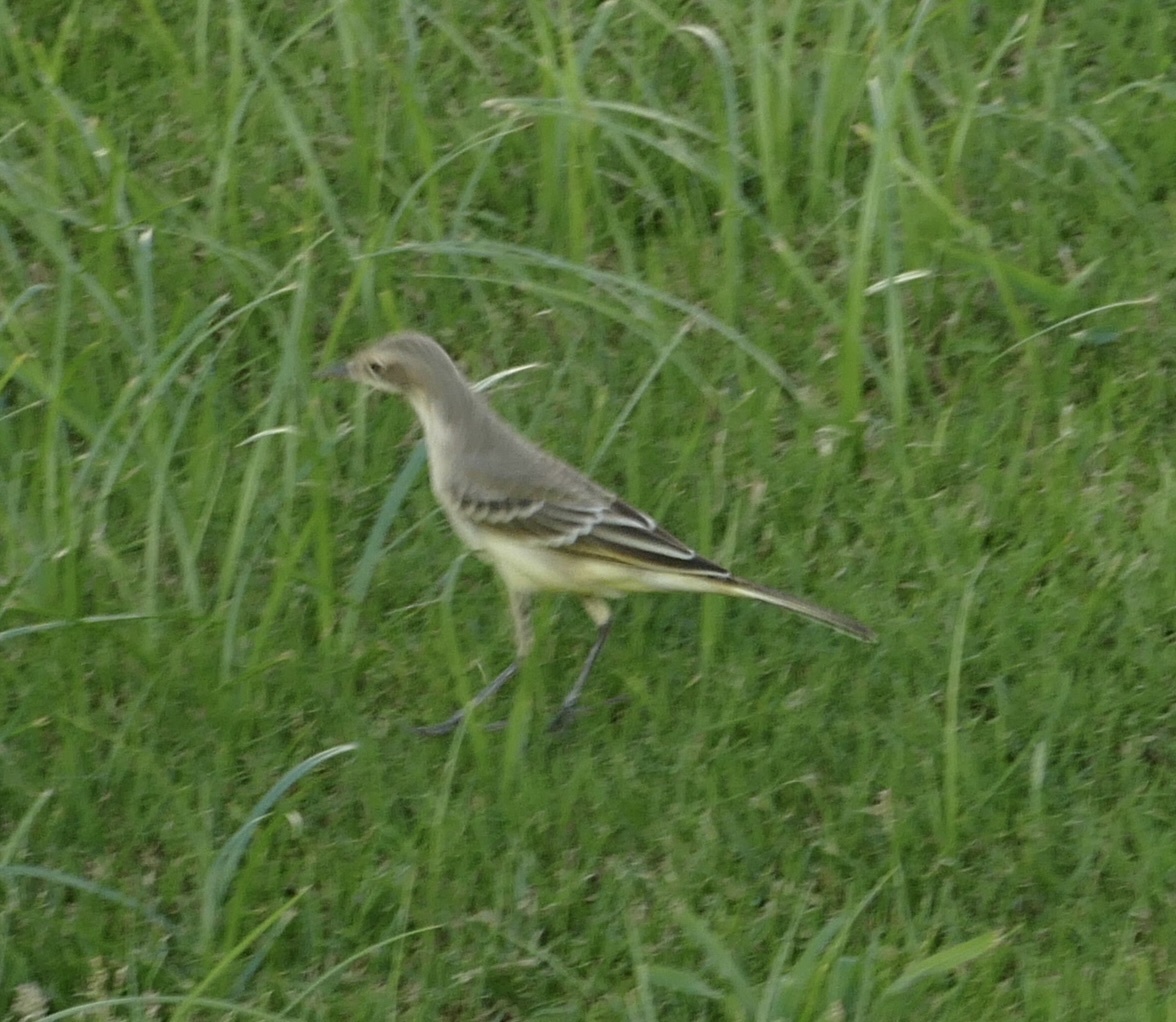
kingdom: Animalia
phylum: Chordata
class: Aves
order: Passeriformes
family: Motacillidae
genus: Motacilla
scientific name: Motacilla flava
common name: Western yellow wagtail
